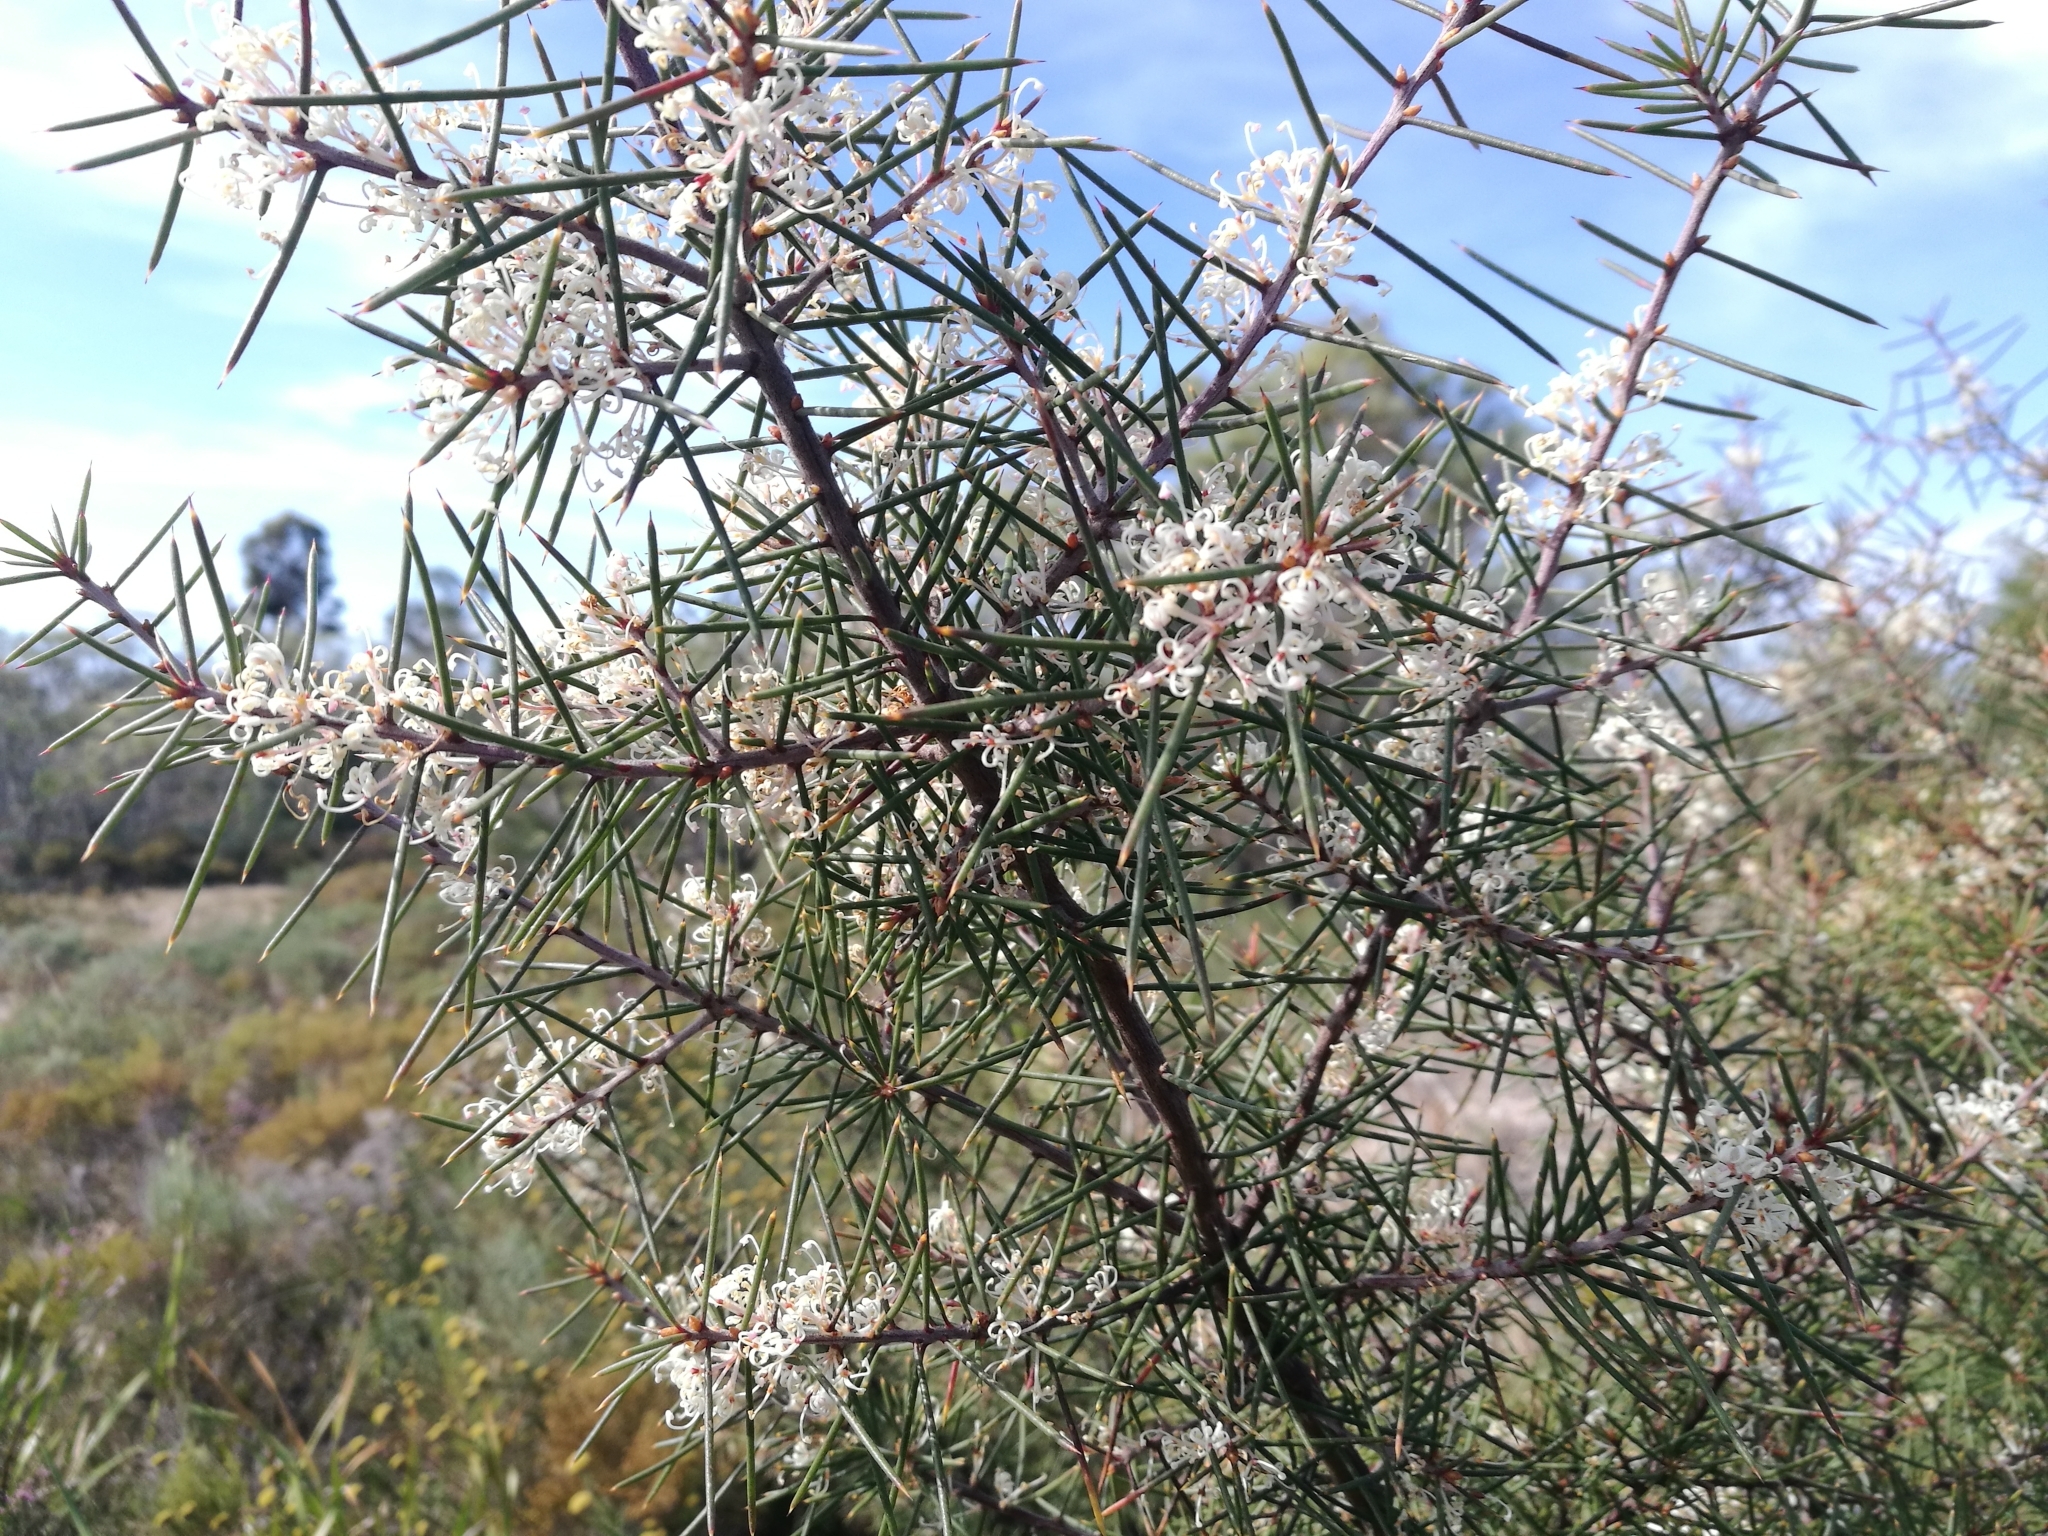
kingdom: Plantae
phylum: Tracheophyta
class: Magnoliopsida
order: Proteales
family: Proteaceae
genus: Hakea
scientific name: Hakea sericea
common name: Needle bush
